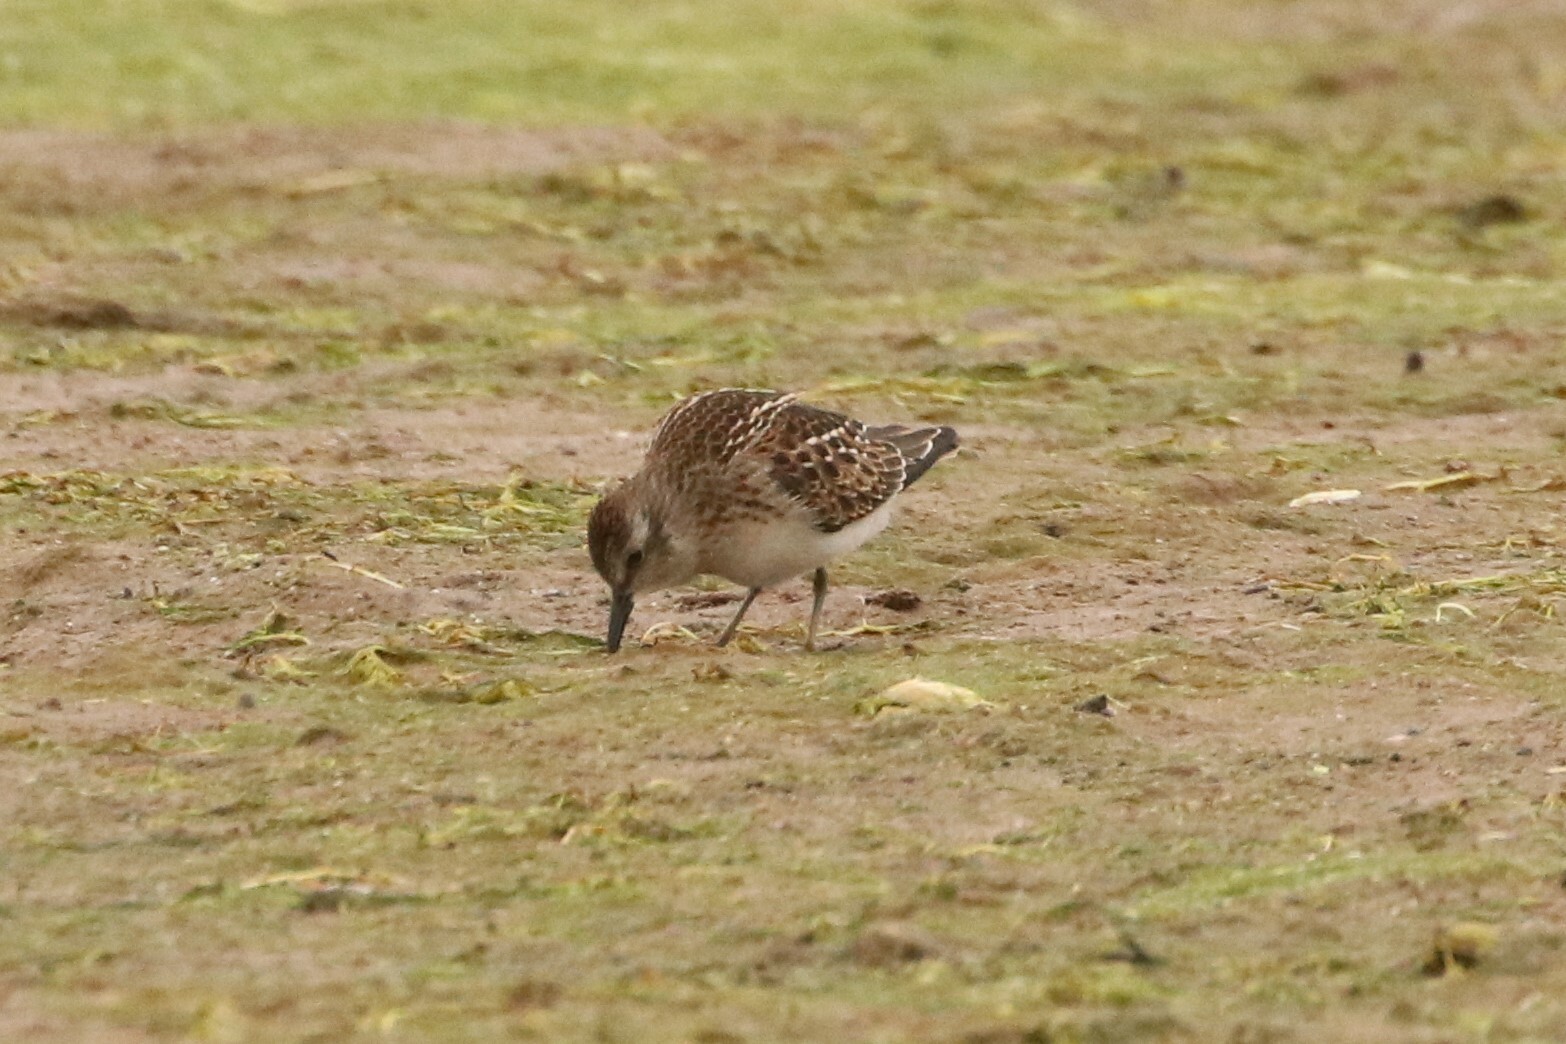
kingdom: Animalia
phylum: Chordata
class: Aves
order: Charadriiformes
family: Scolopacidae
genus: Calidris
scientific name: Calidris minutilla
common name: Least sandpiper
